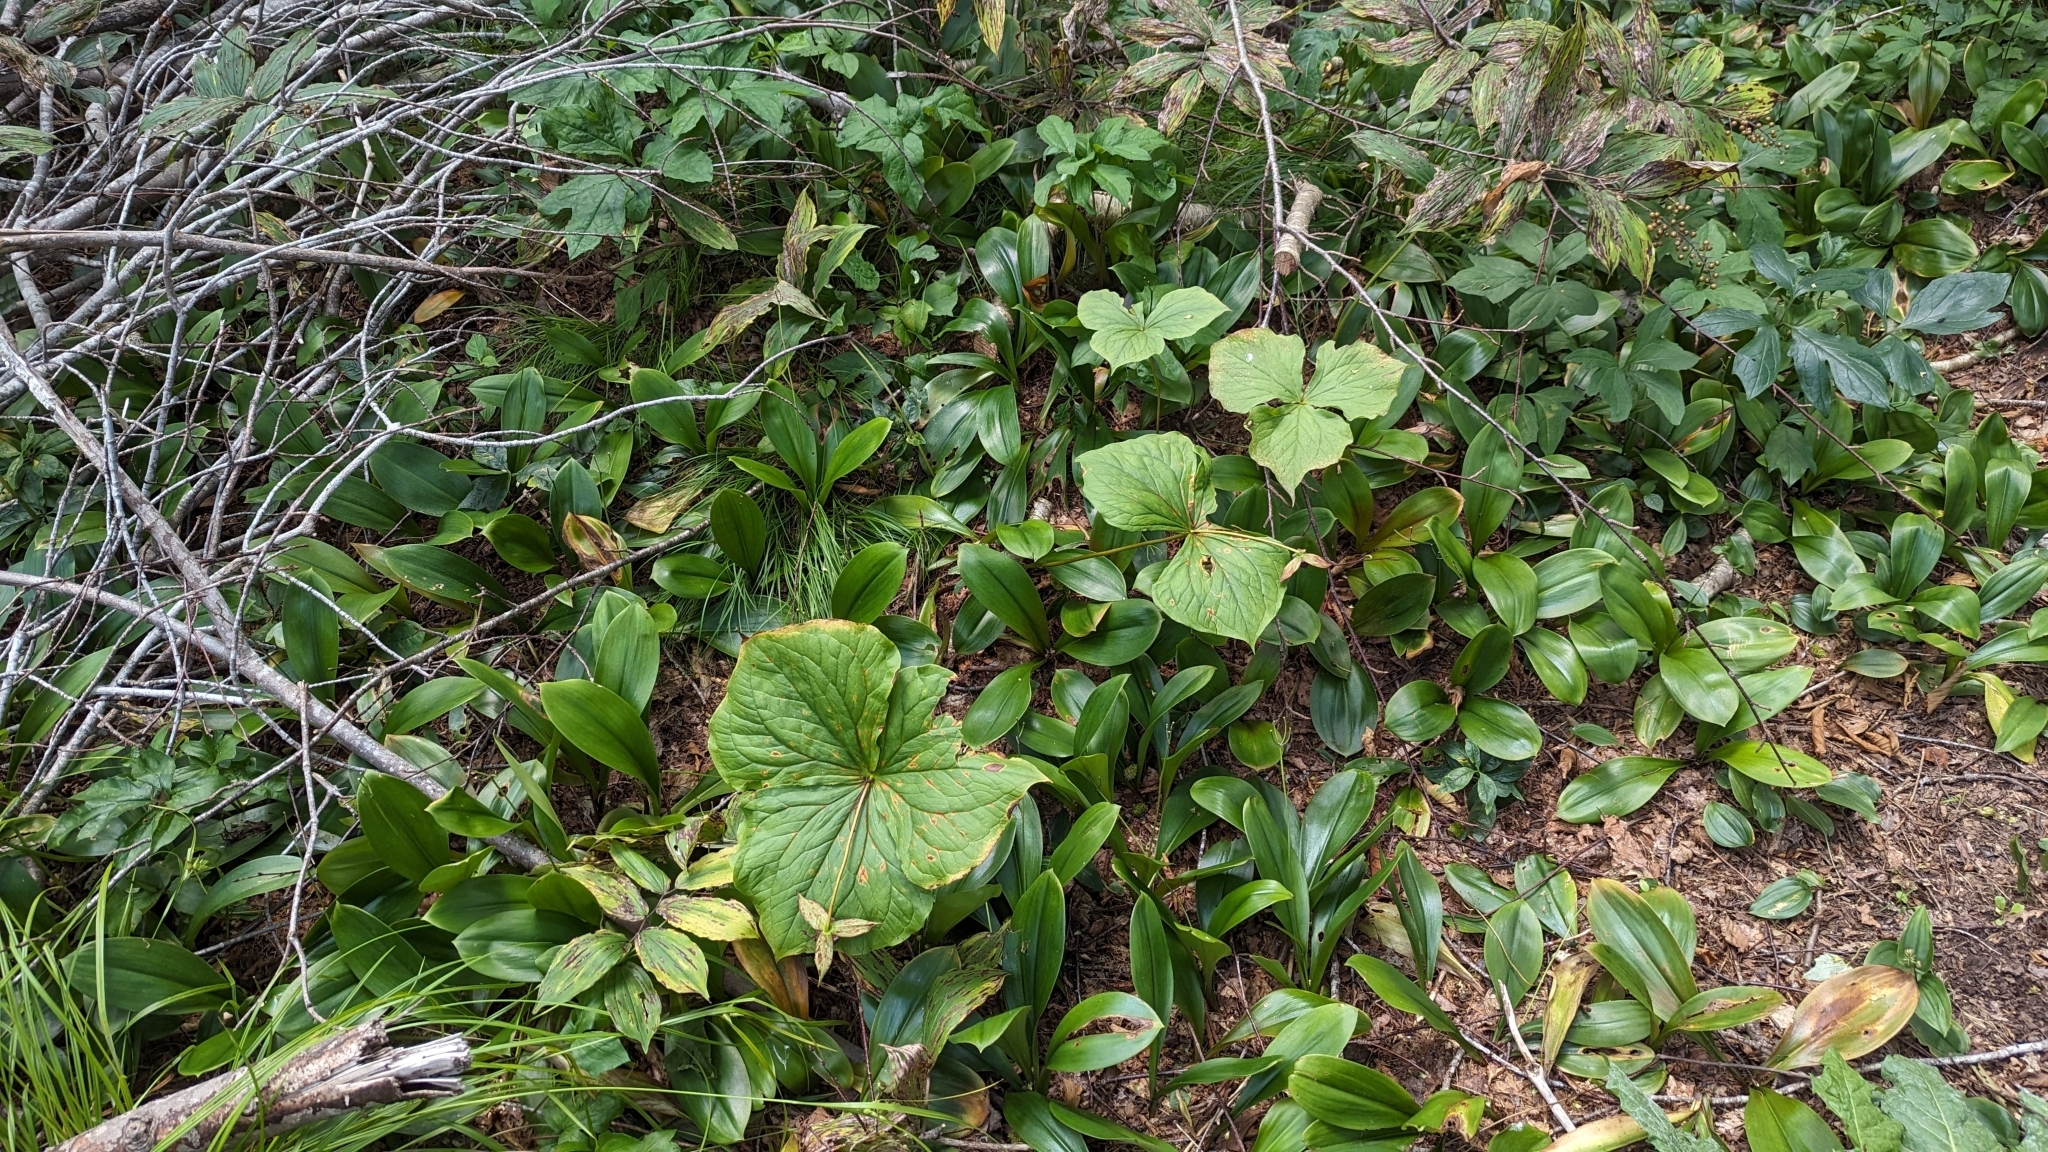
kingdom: Plantae
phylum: Tracheophyta
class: Liliopsida
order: Liliales
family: Melanthiaceae
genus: Trillium
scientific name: Trillium erectum
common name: Purple trillium
